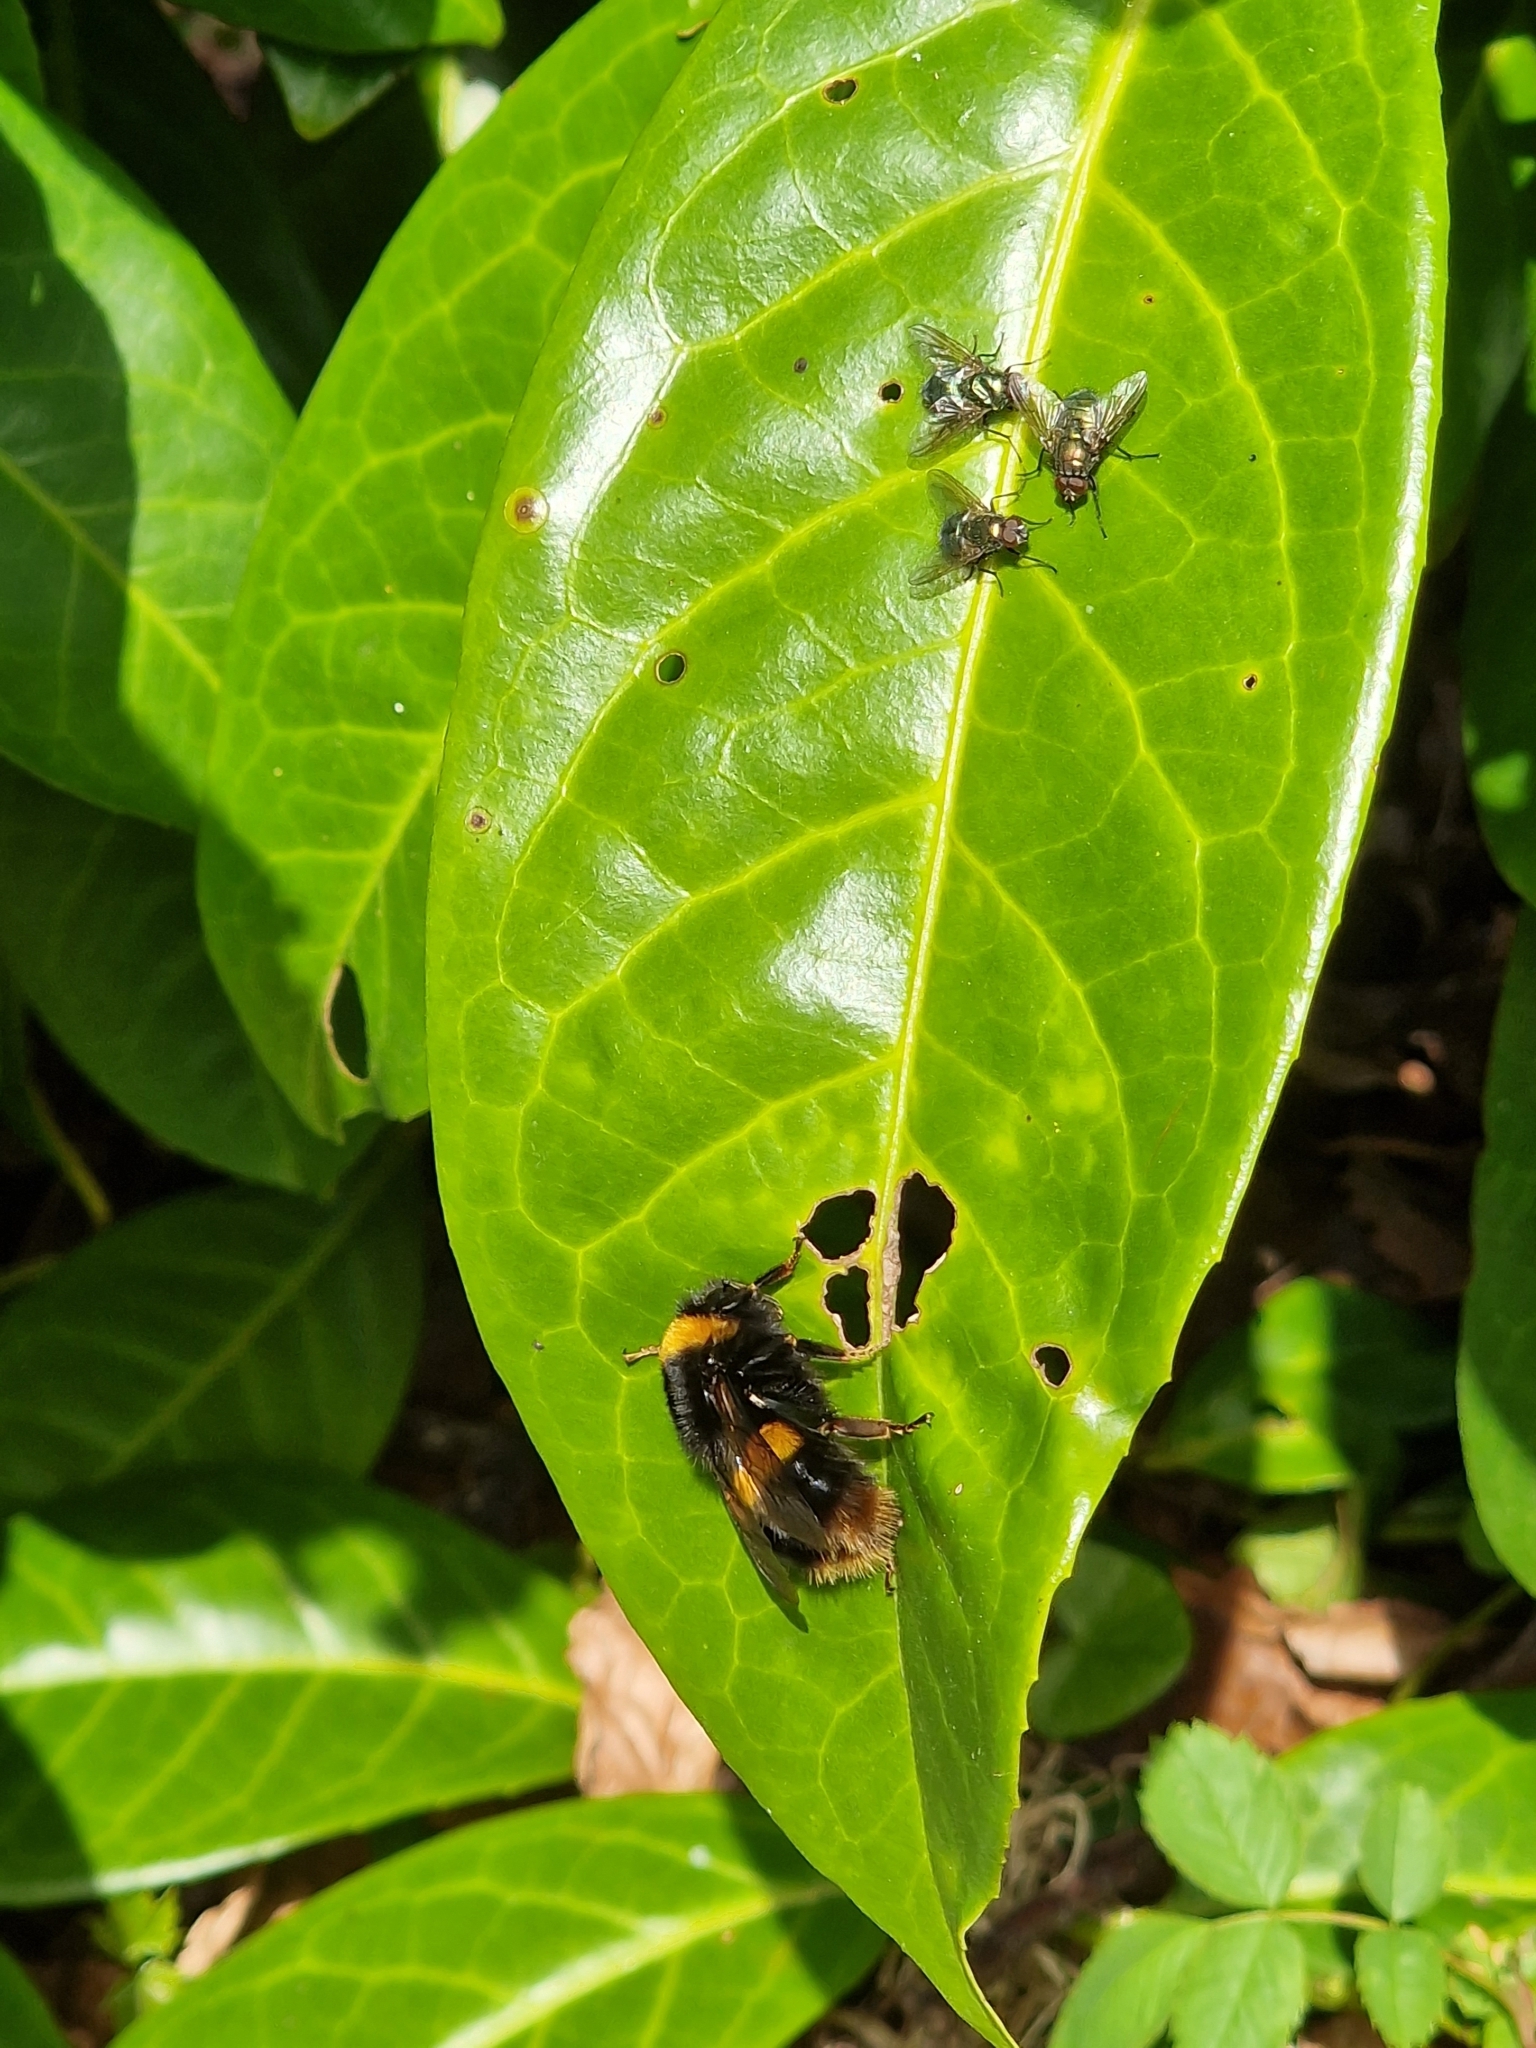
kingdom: Animalia
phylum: Arthropoda
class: Insecta
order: Hymenoptera
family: Apidae
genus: Bombus
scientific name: Bombus terrestris
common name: Buff-tailed bumblebee
